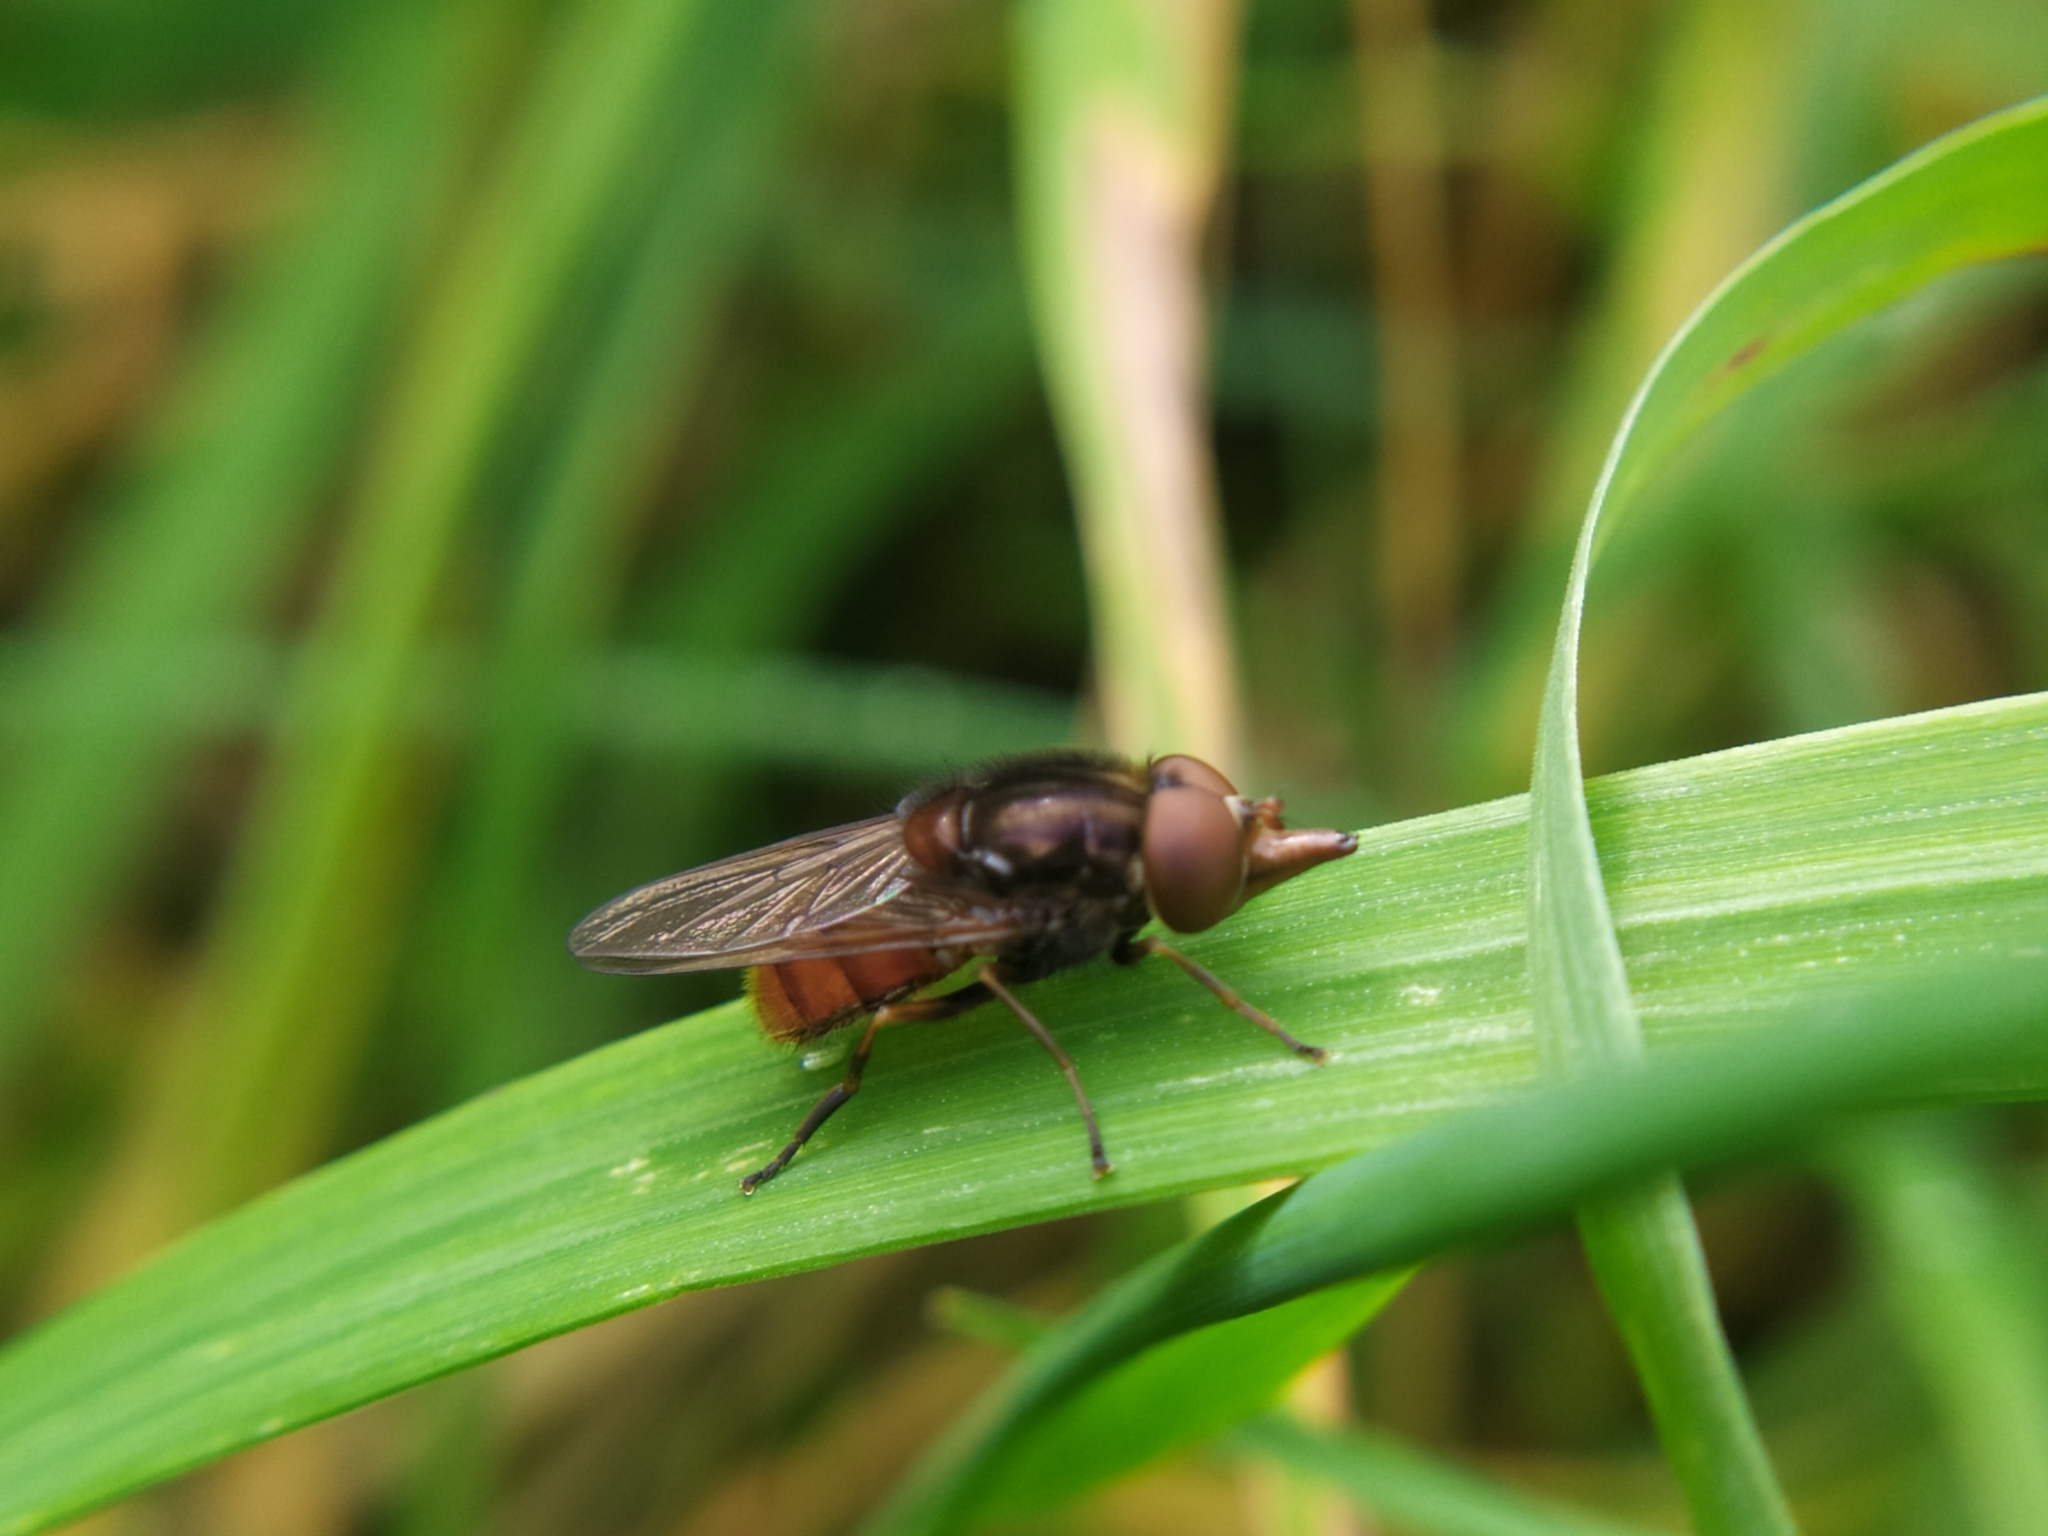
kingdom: Animalia
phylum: Arthropoda
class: Insecta
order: Diptera
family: Syrphidae
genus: Rhingia
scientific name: Rhingia campestris
